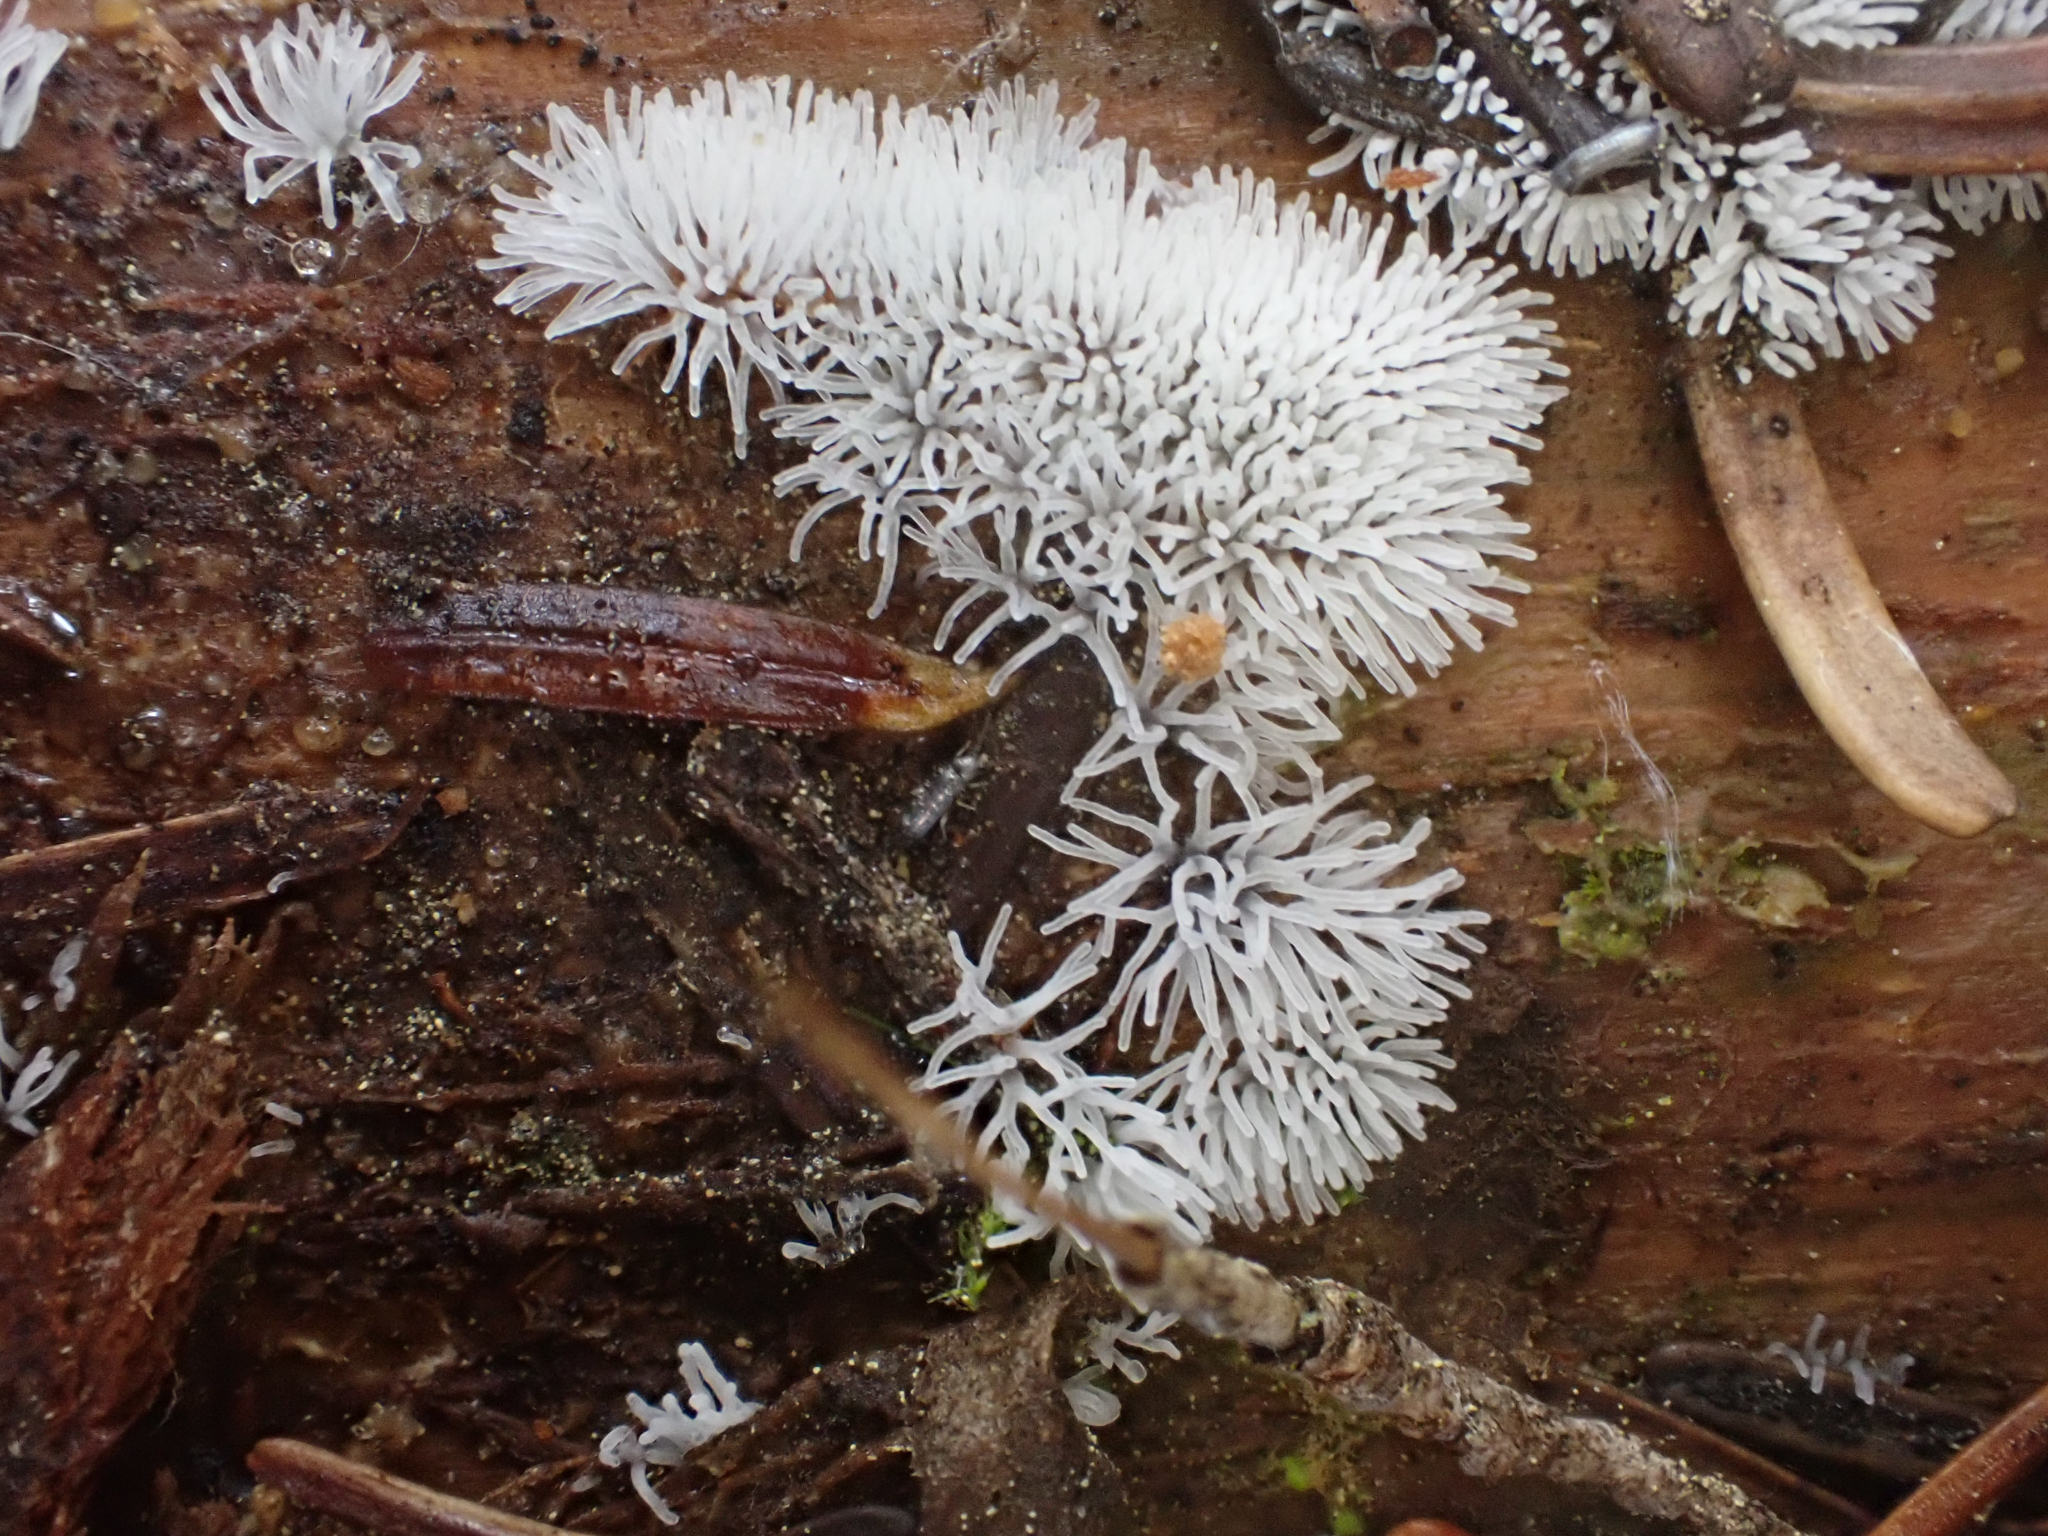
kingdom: Protozoa
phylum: Mycetozoa
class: Protosteliomycetes
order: Ceratiomyxales
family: Ceratiomyxaceae
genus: Ceratiomyxa
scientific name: Ceratiomyxa fruticulosa
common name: Honeycomb coral slime mold
